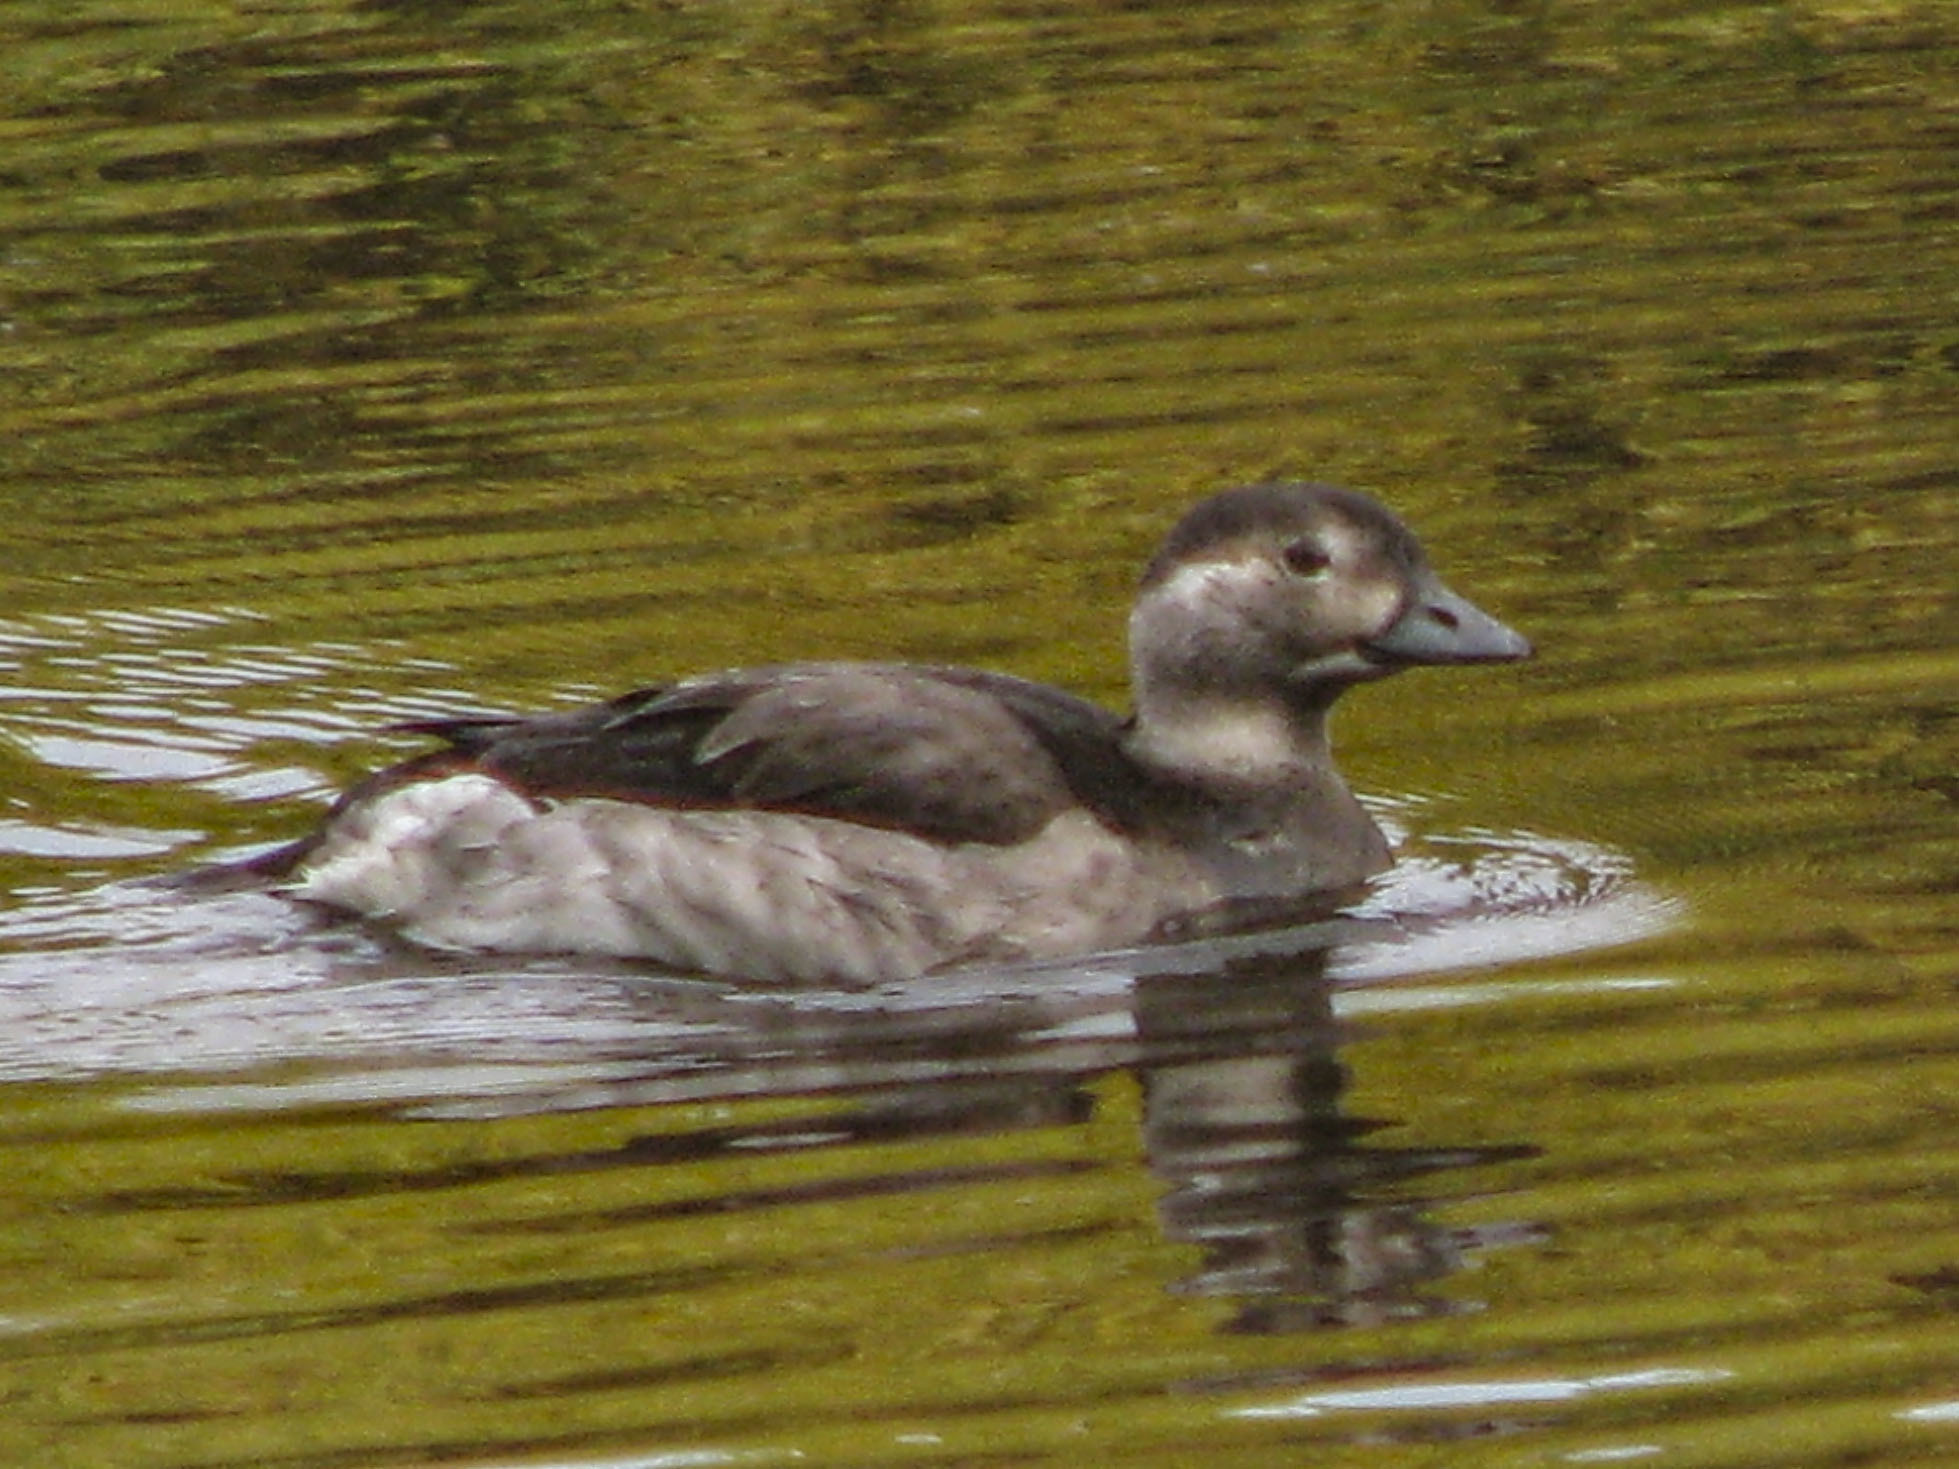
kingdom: Animalia
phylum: Chordata
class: Aves
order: Anseriformes
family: Anatidae
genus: Clangula
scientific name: Clangula hyemalis
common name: Long-tailed duck
